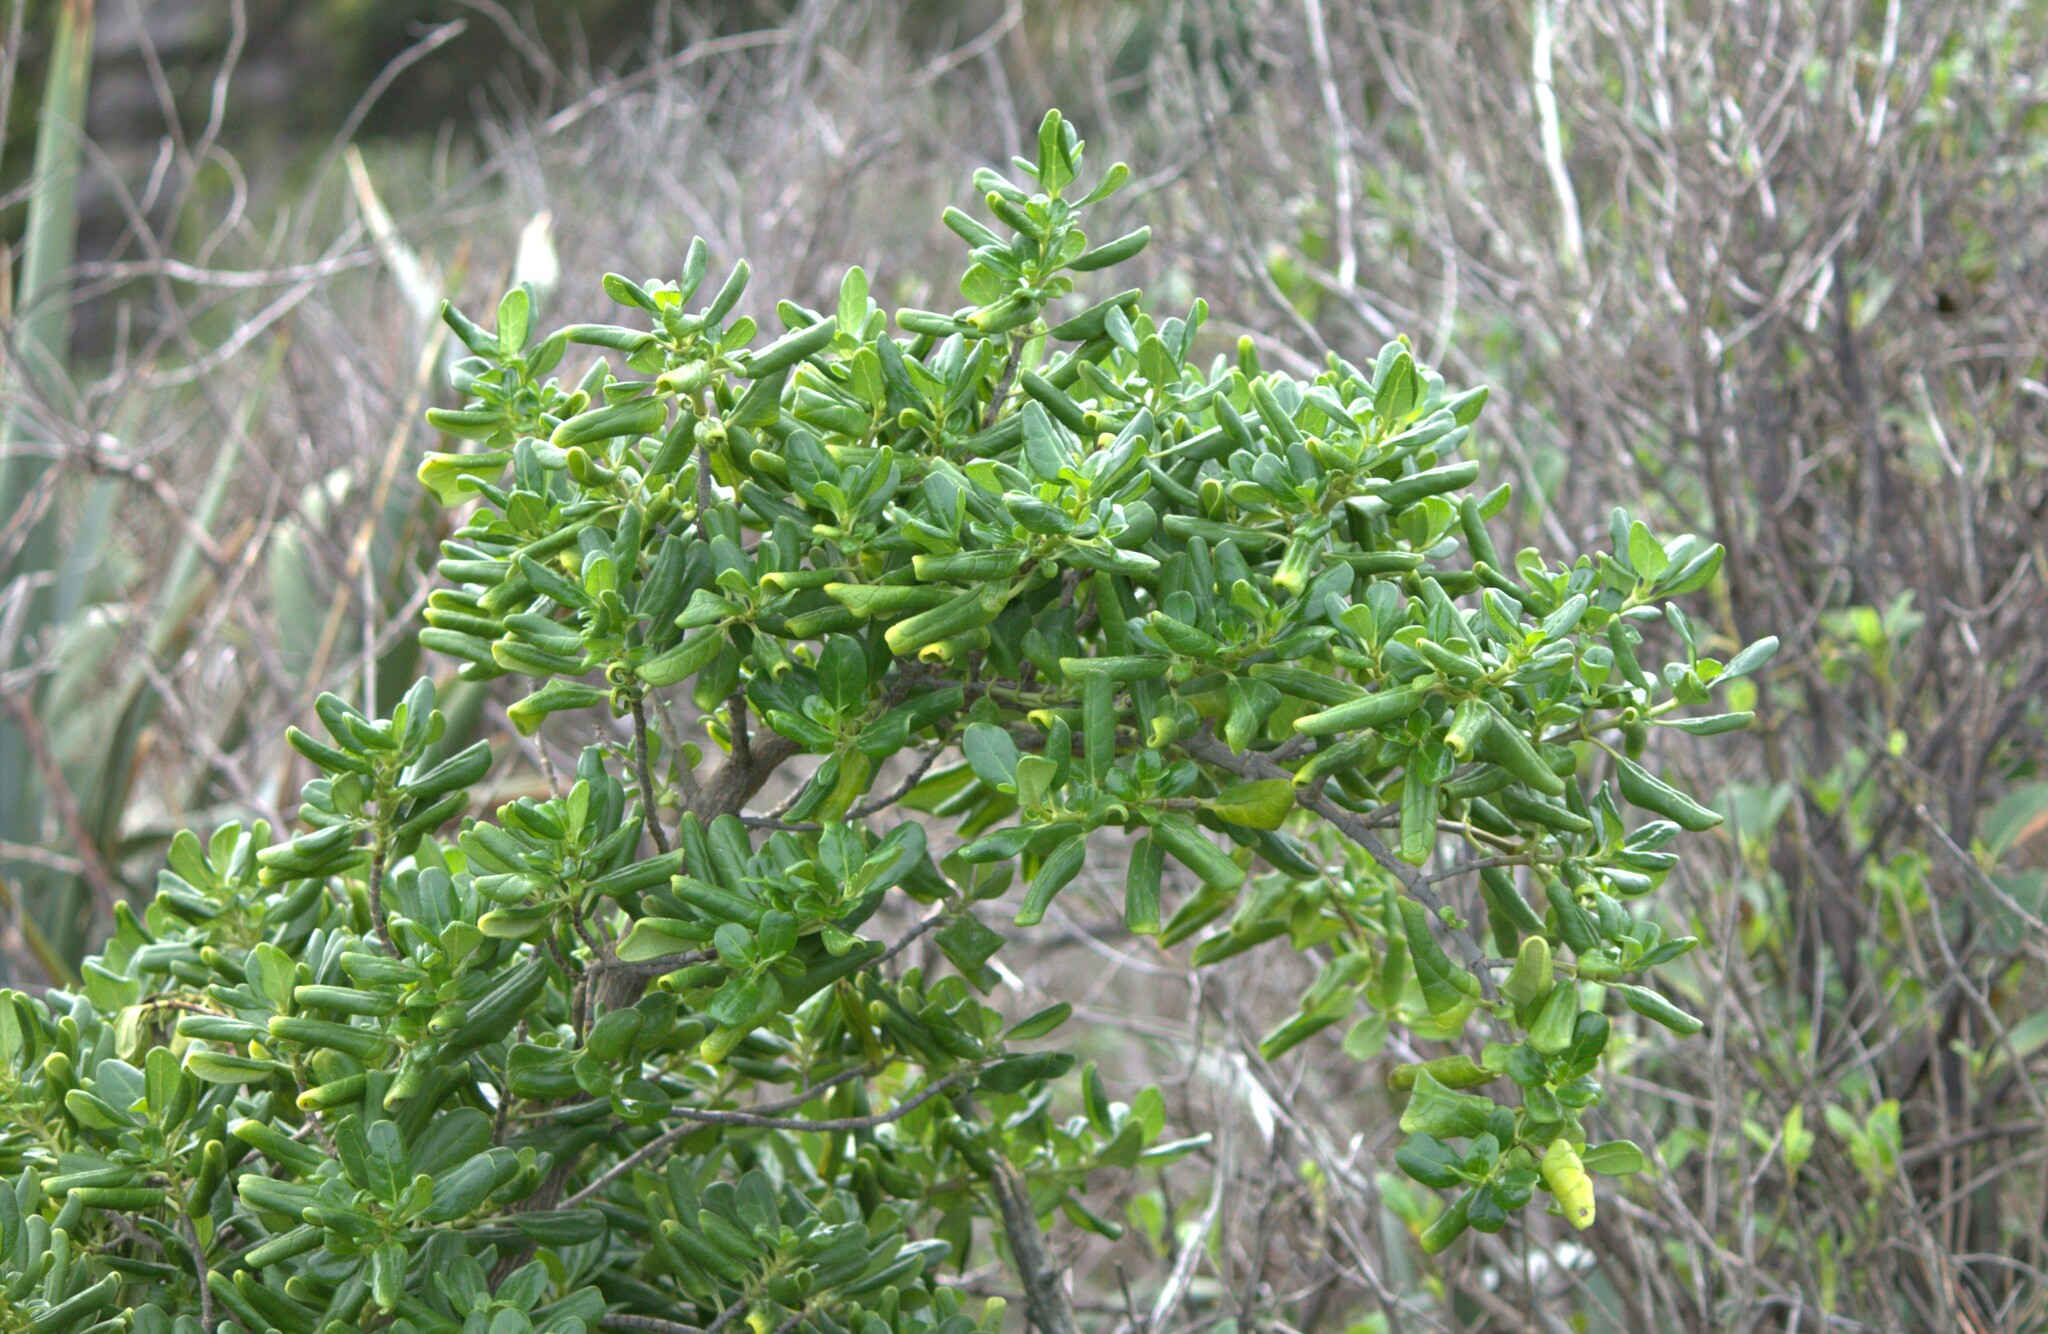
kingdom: Plantae
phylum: Tracheophyta
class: Magnoliopsida
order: Gentianales
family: Rubiaceae
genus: Coprosma
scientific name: Coprosma repens
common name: Tree bedstraw
